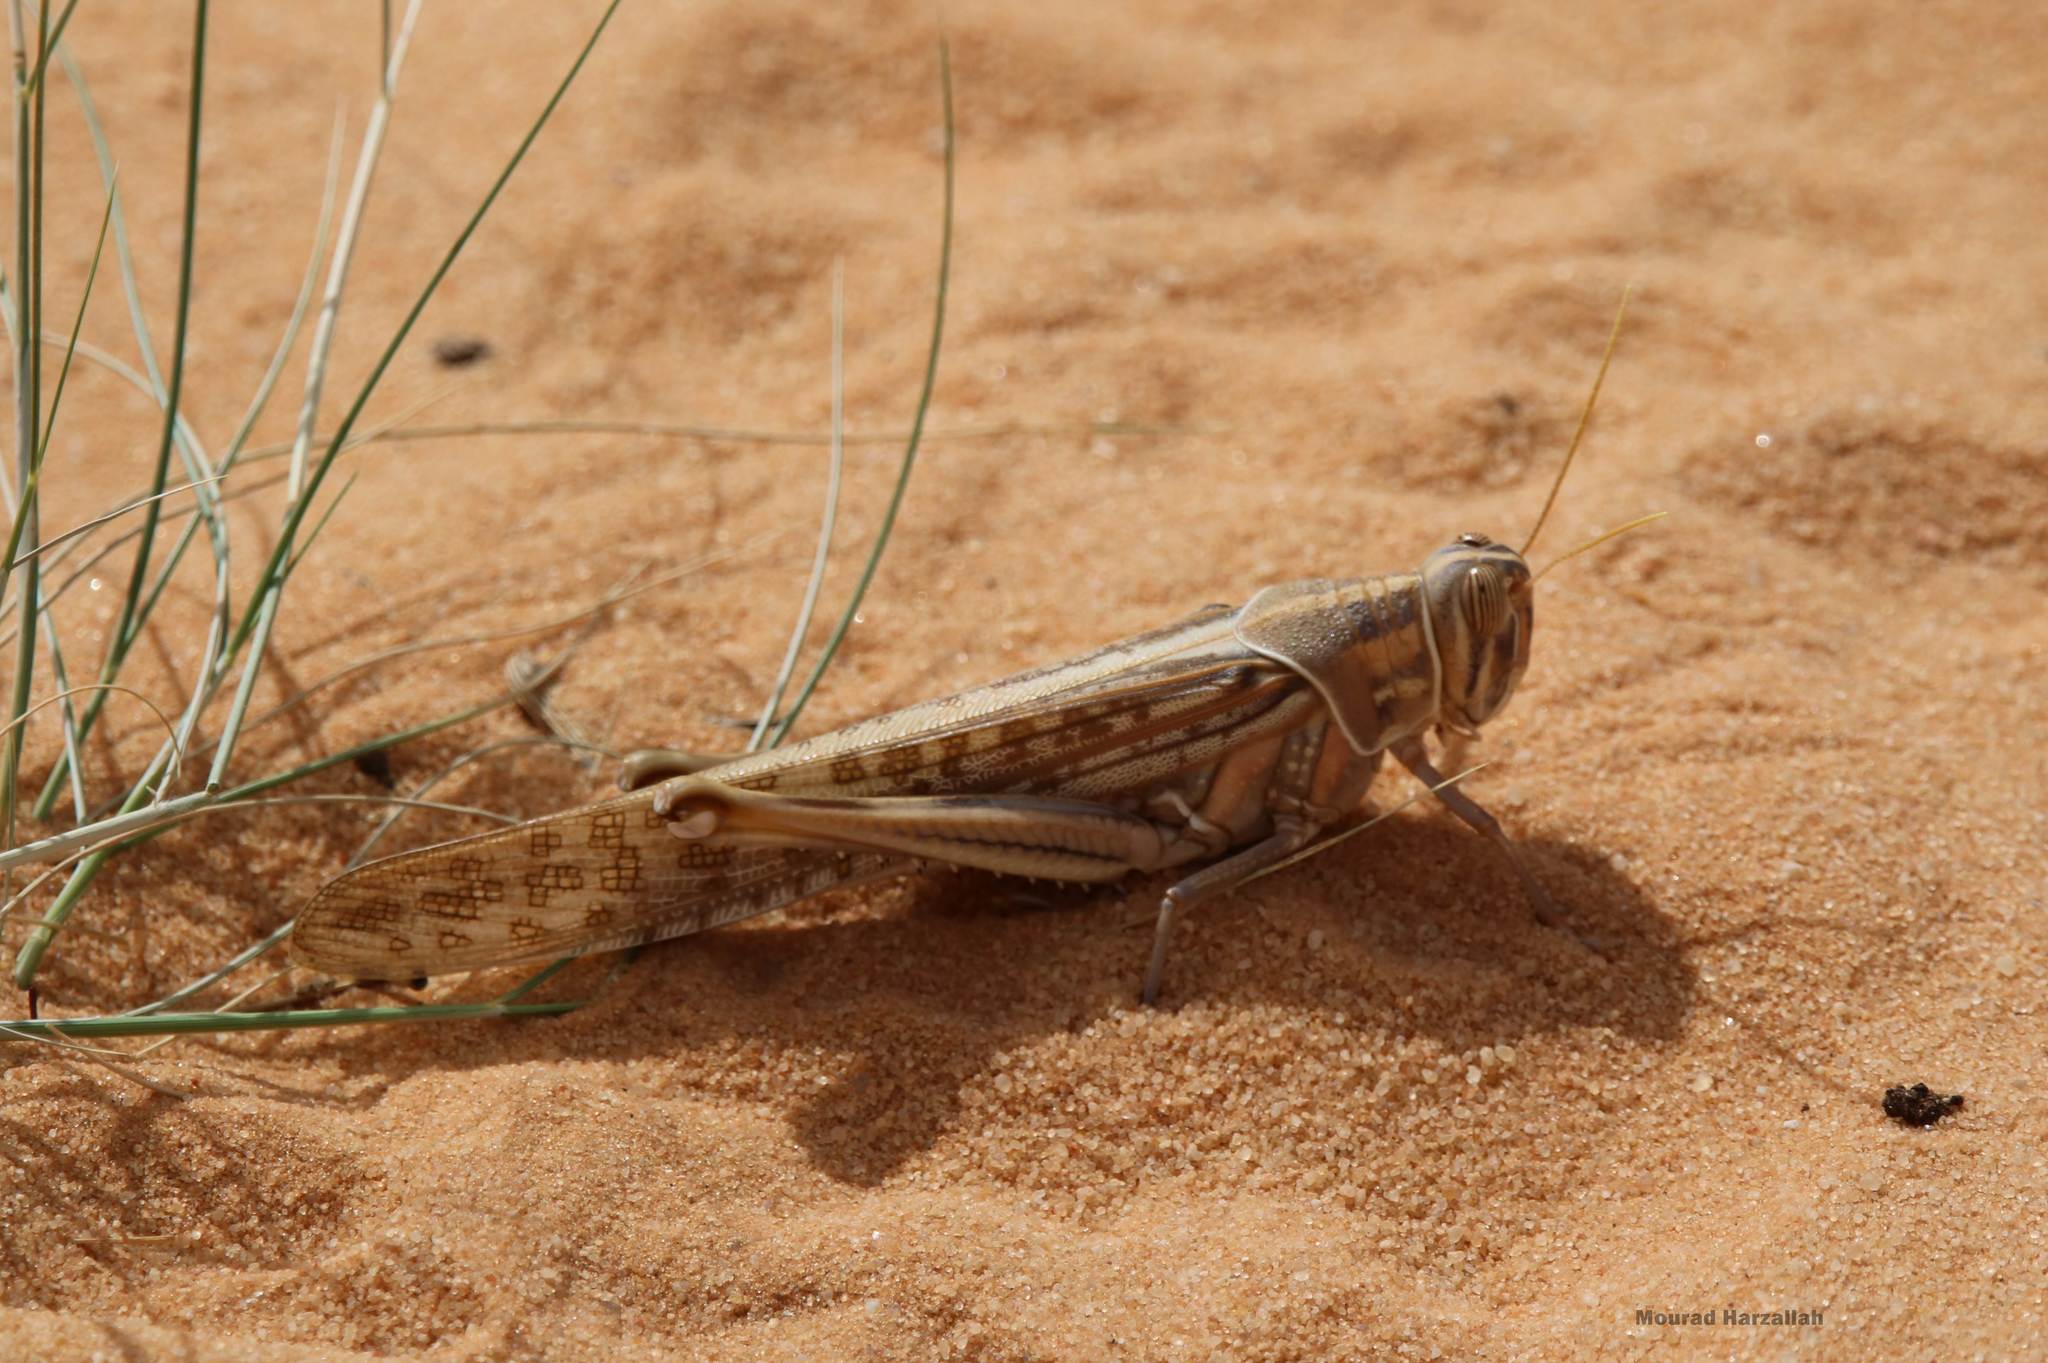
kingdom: Animalia
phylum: Arthropoda
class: Insecta
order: Orthoptera
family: Acrididae
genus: Schistocerca
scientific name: Schistocerca gregaria
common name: Desert locust
